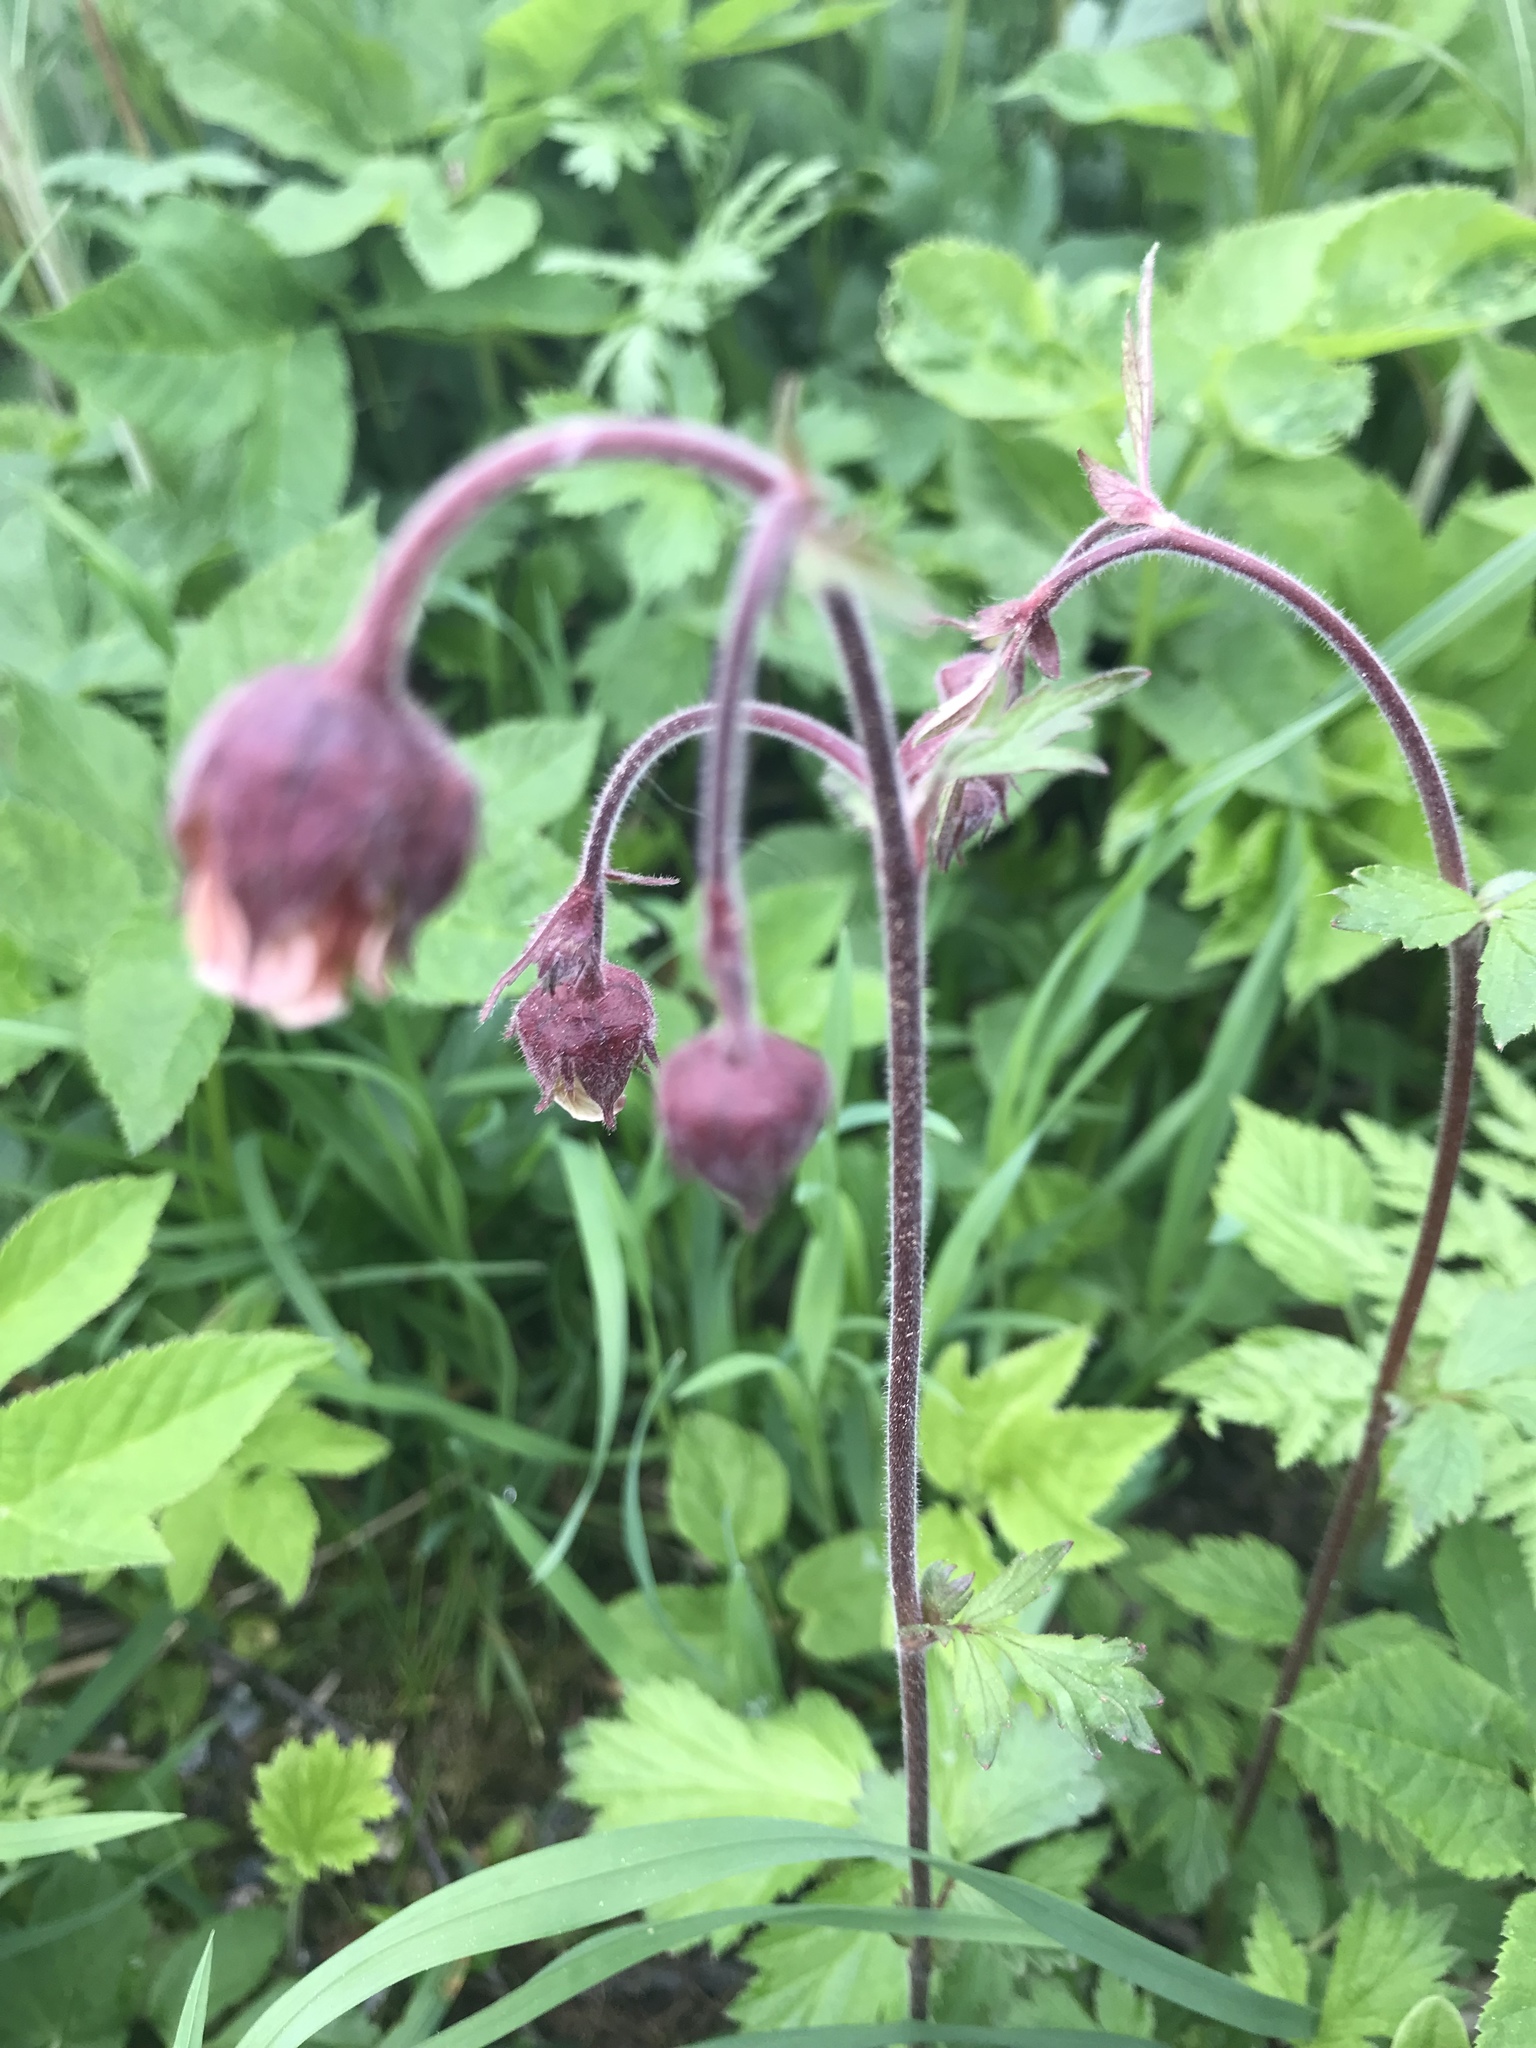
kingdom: Plantae
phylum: Tracheophyta
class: Magnoliopsida
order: Rosales
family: Rosaceae
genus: Geum
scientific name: Geum rivale
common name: Water avens
